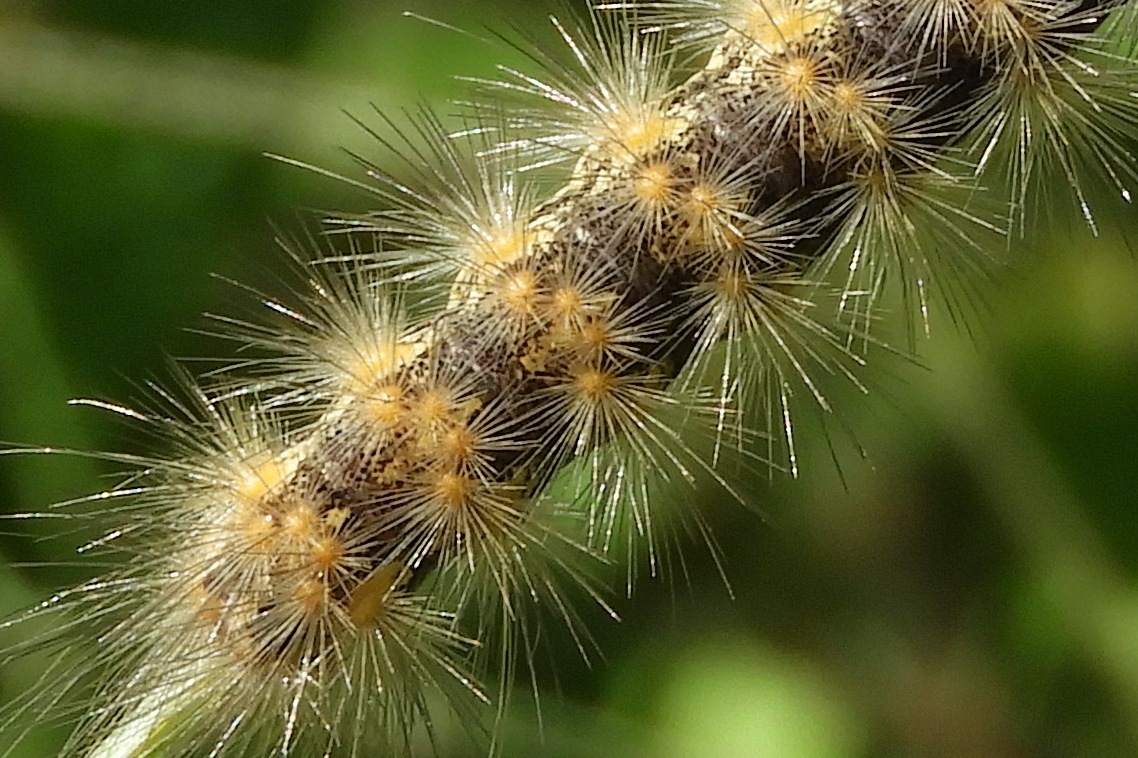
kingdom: Animalia
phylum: Arthropoda
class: Insecta
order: Lepidoptera
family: Erebidae
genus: Estigmene
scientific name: Estigmene acrea
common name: Salt marsh moth
